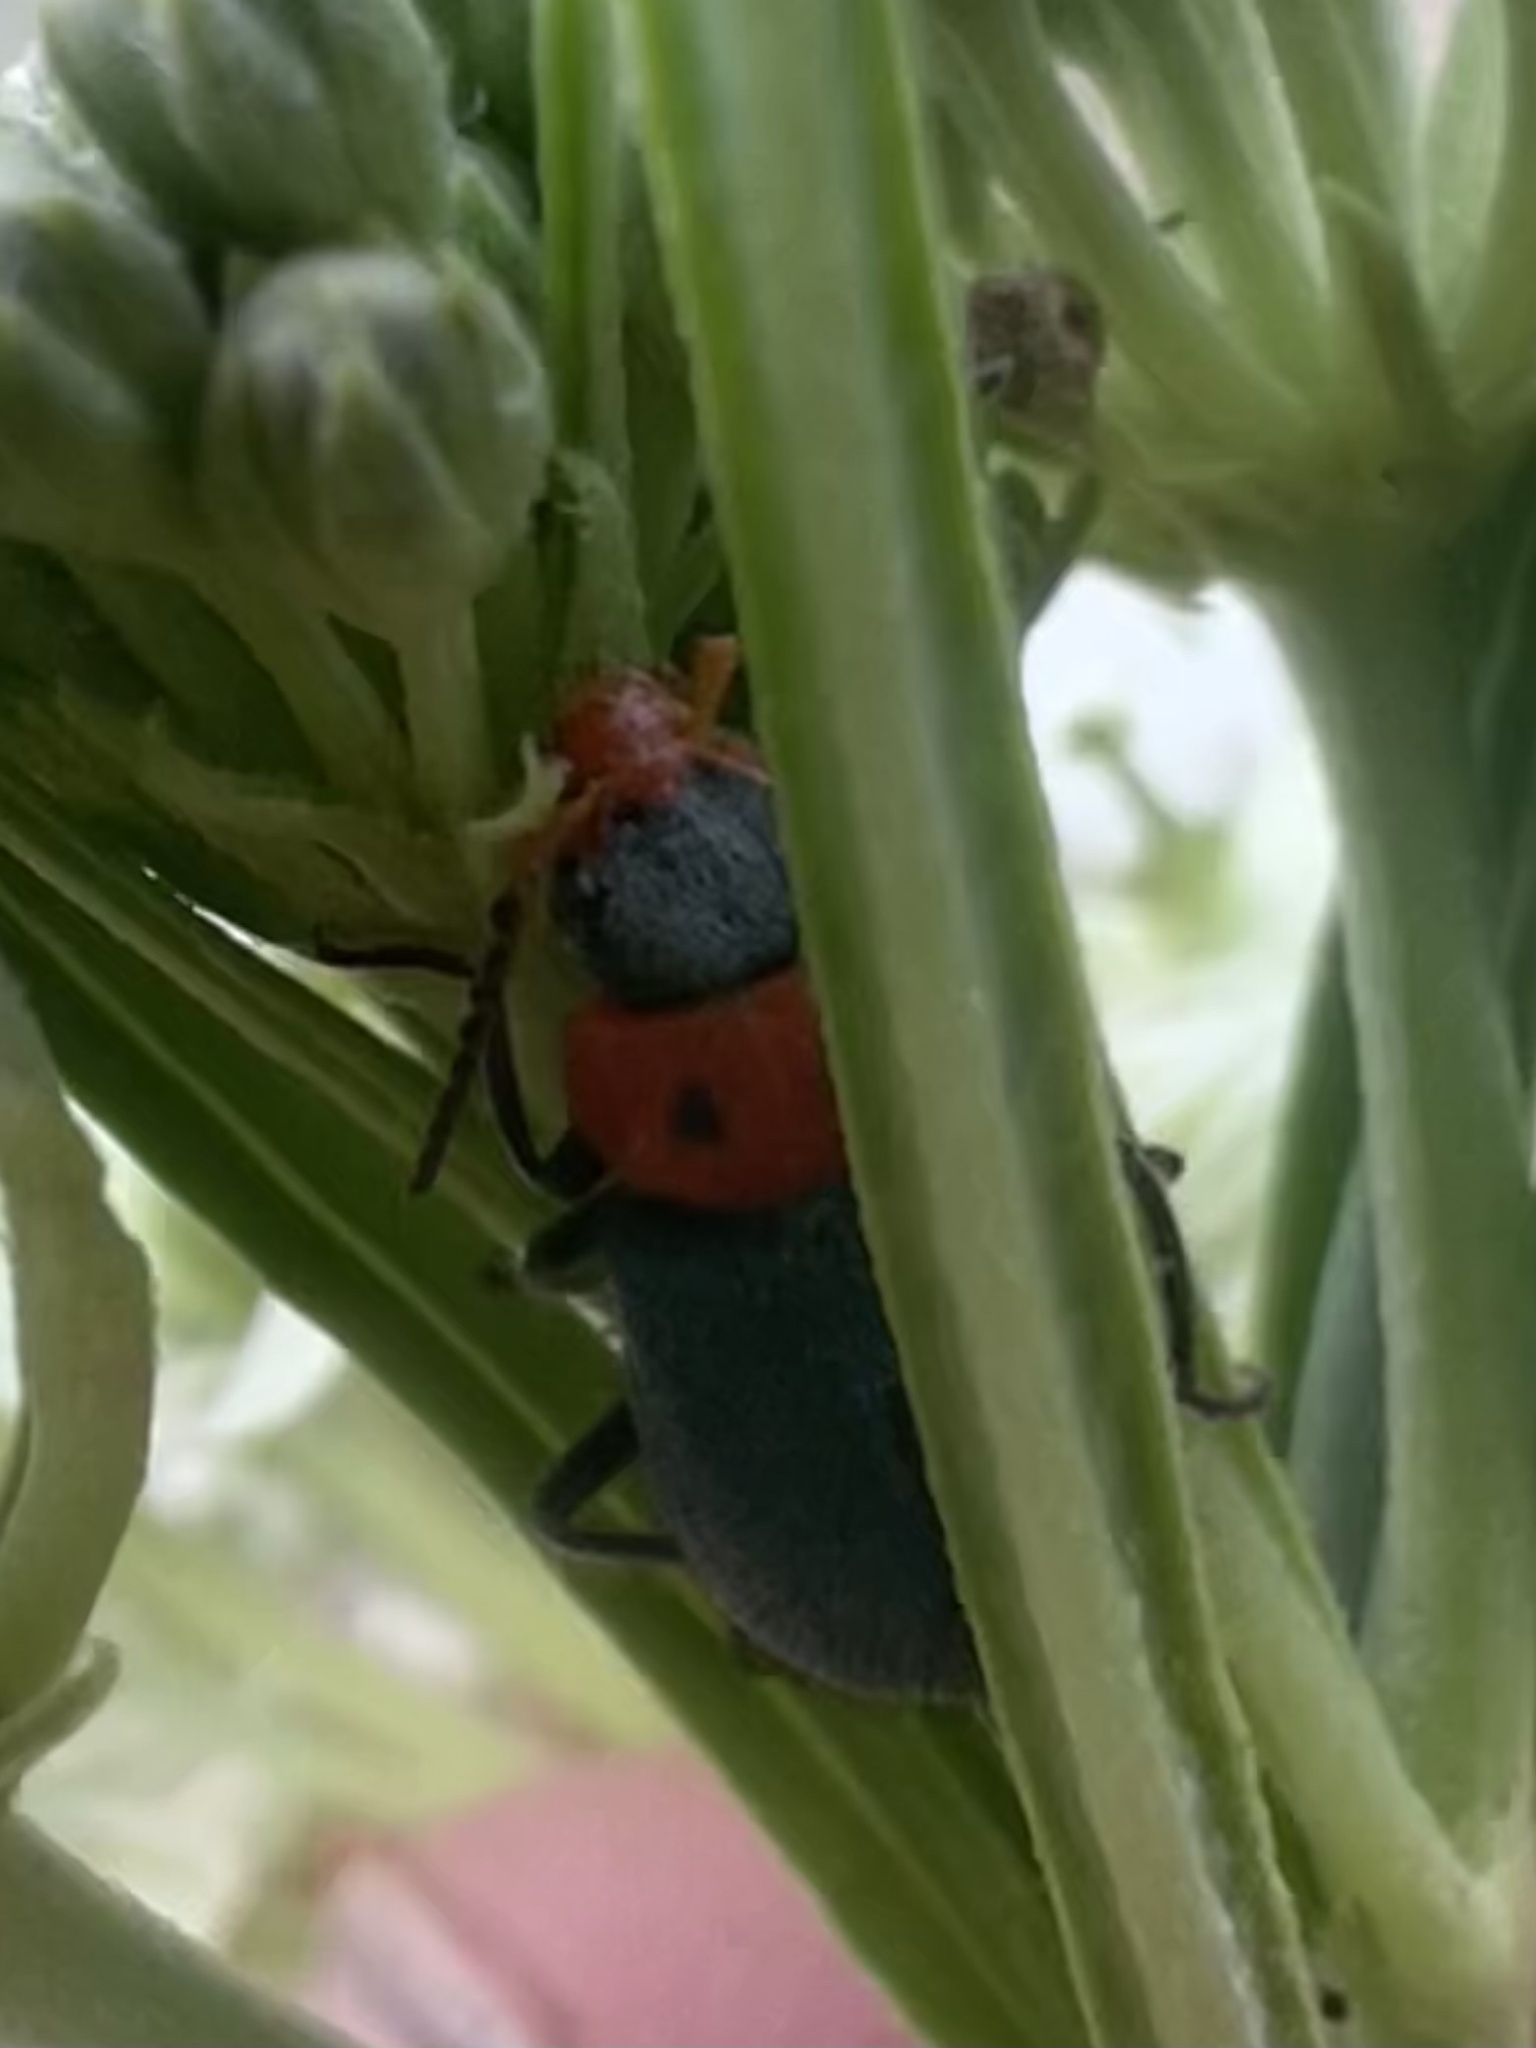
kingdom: Animalia
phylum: Arthropoda
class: Insecta
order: Coleoptera
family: Melyridae
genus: Collops
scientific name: Collops bipunctatus
